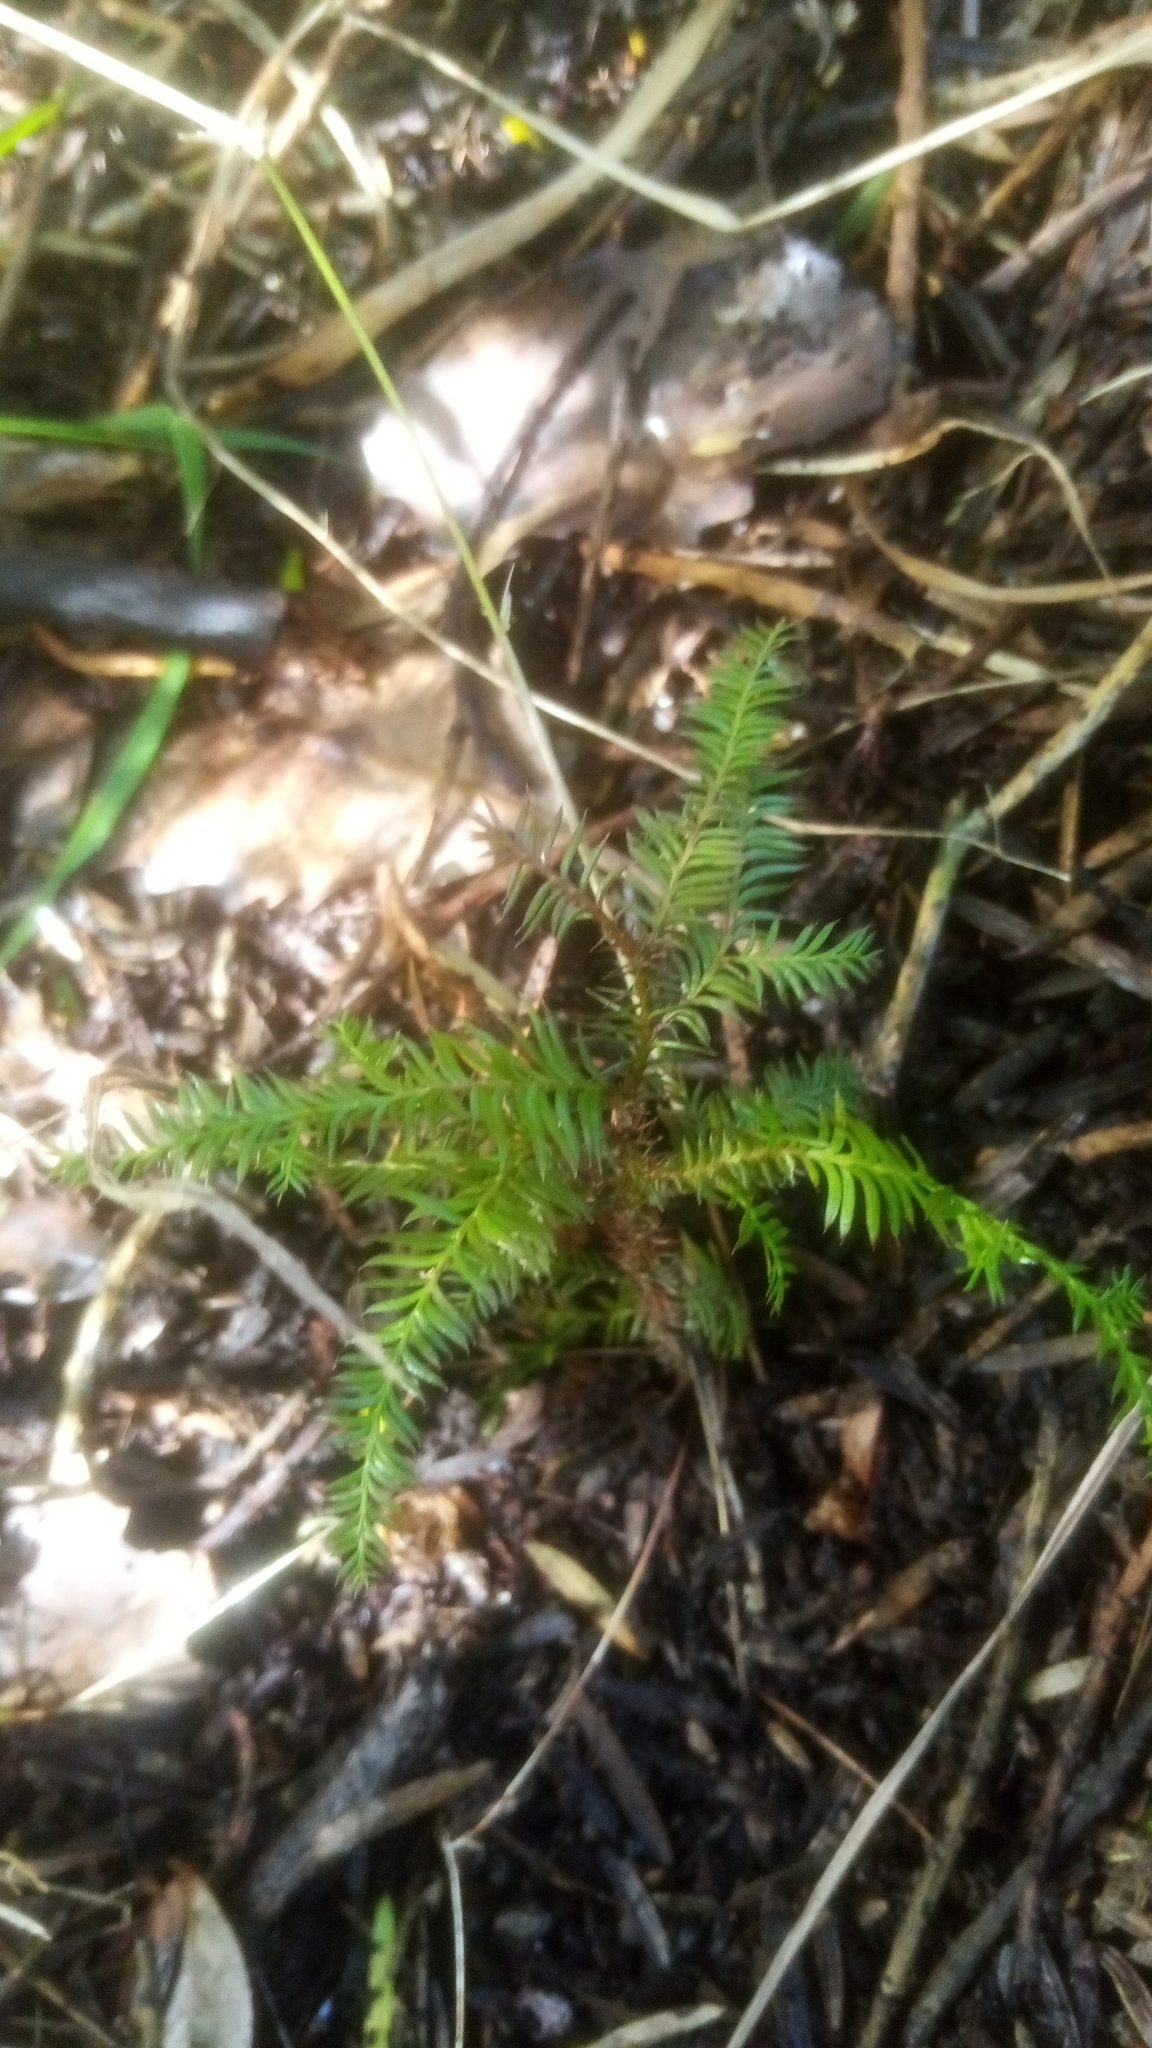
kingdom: Plantae
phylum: Tracheophyta
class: Pinopsida
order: Pinales
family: Podocarpaceae
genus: Dacrycarpus
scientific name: Dacrycarpus dacrydioides
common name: White pine
